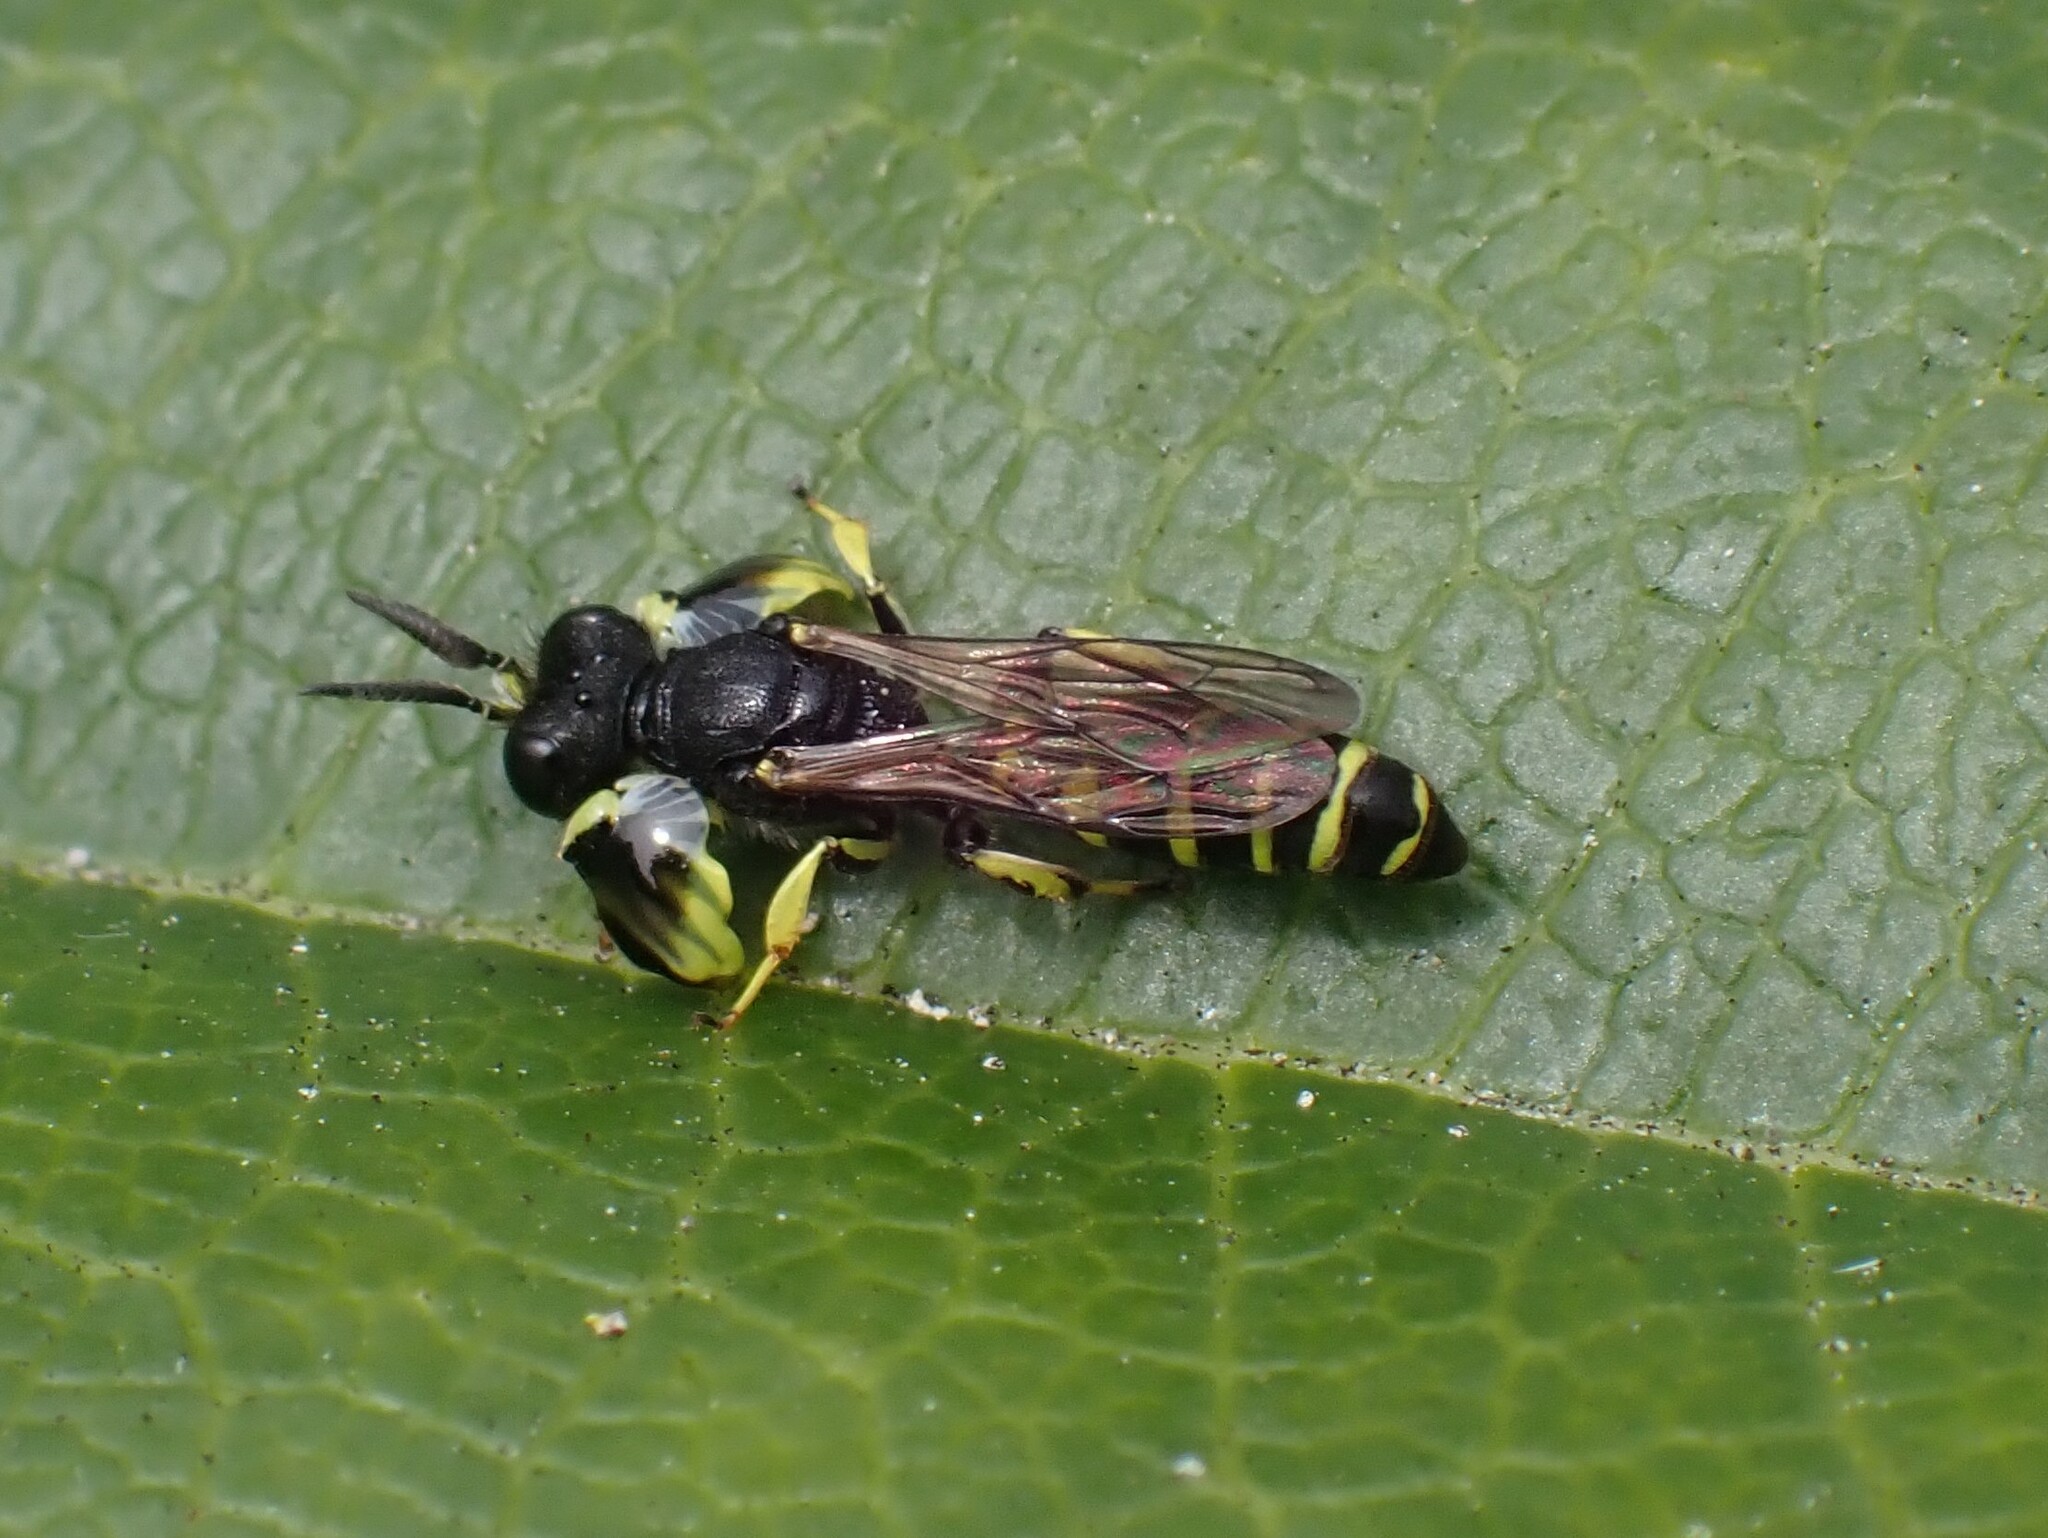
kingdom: Animalia
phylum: Arthropoda
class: Insecta
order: Hymenoptera
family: Crabronidae
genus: Crabro
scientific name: Crabro latipes
